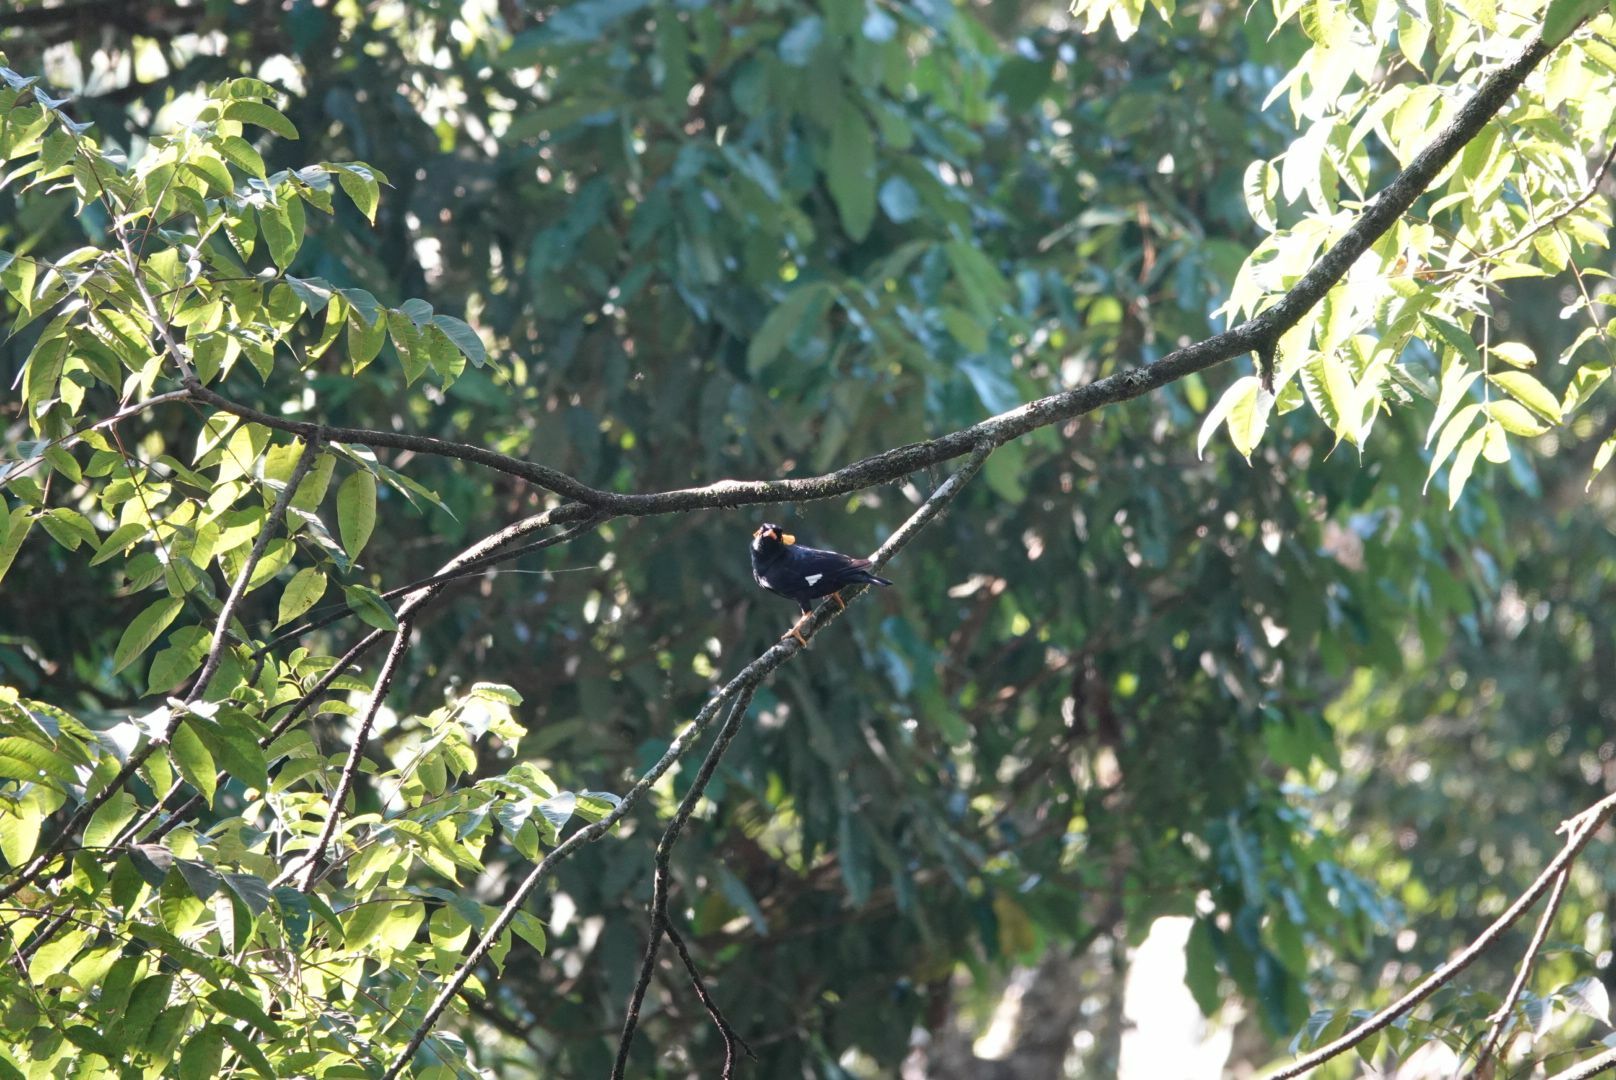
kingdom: Animalia
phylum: Chordata
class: Aves
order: Passeriformes
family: Sturnidae
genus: Gracula
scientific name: Gracula indica
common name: Southern hill myna
